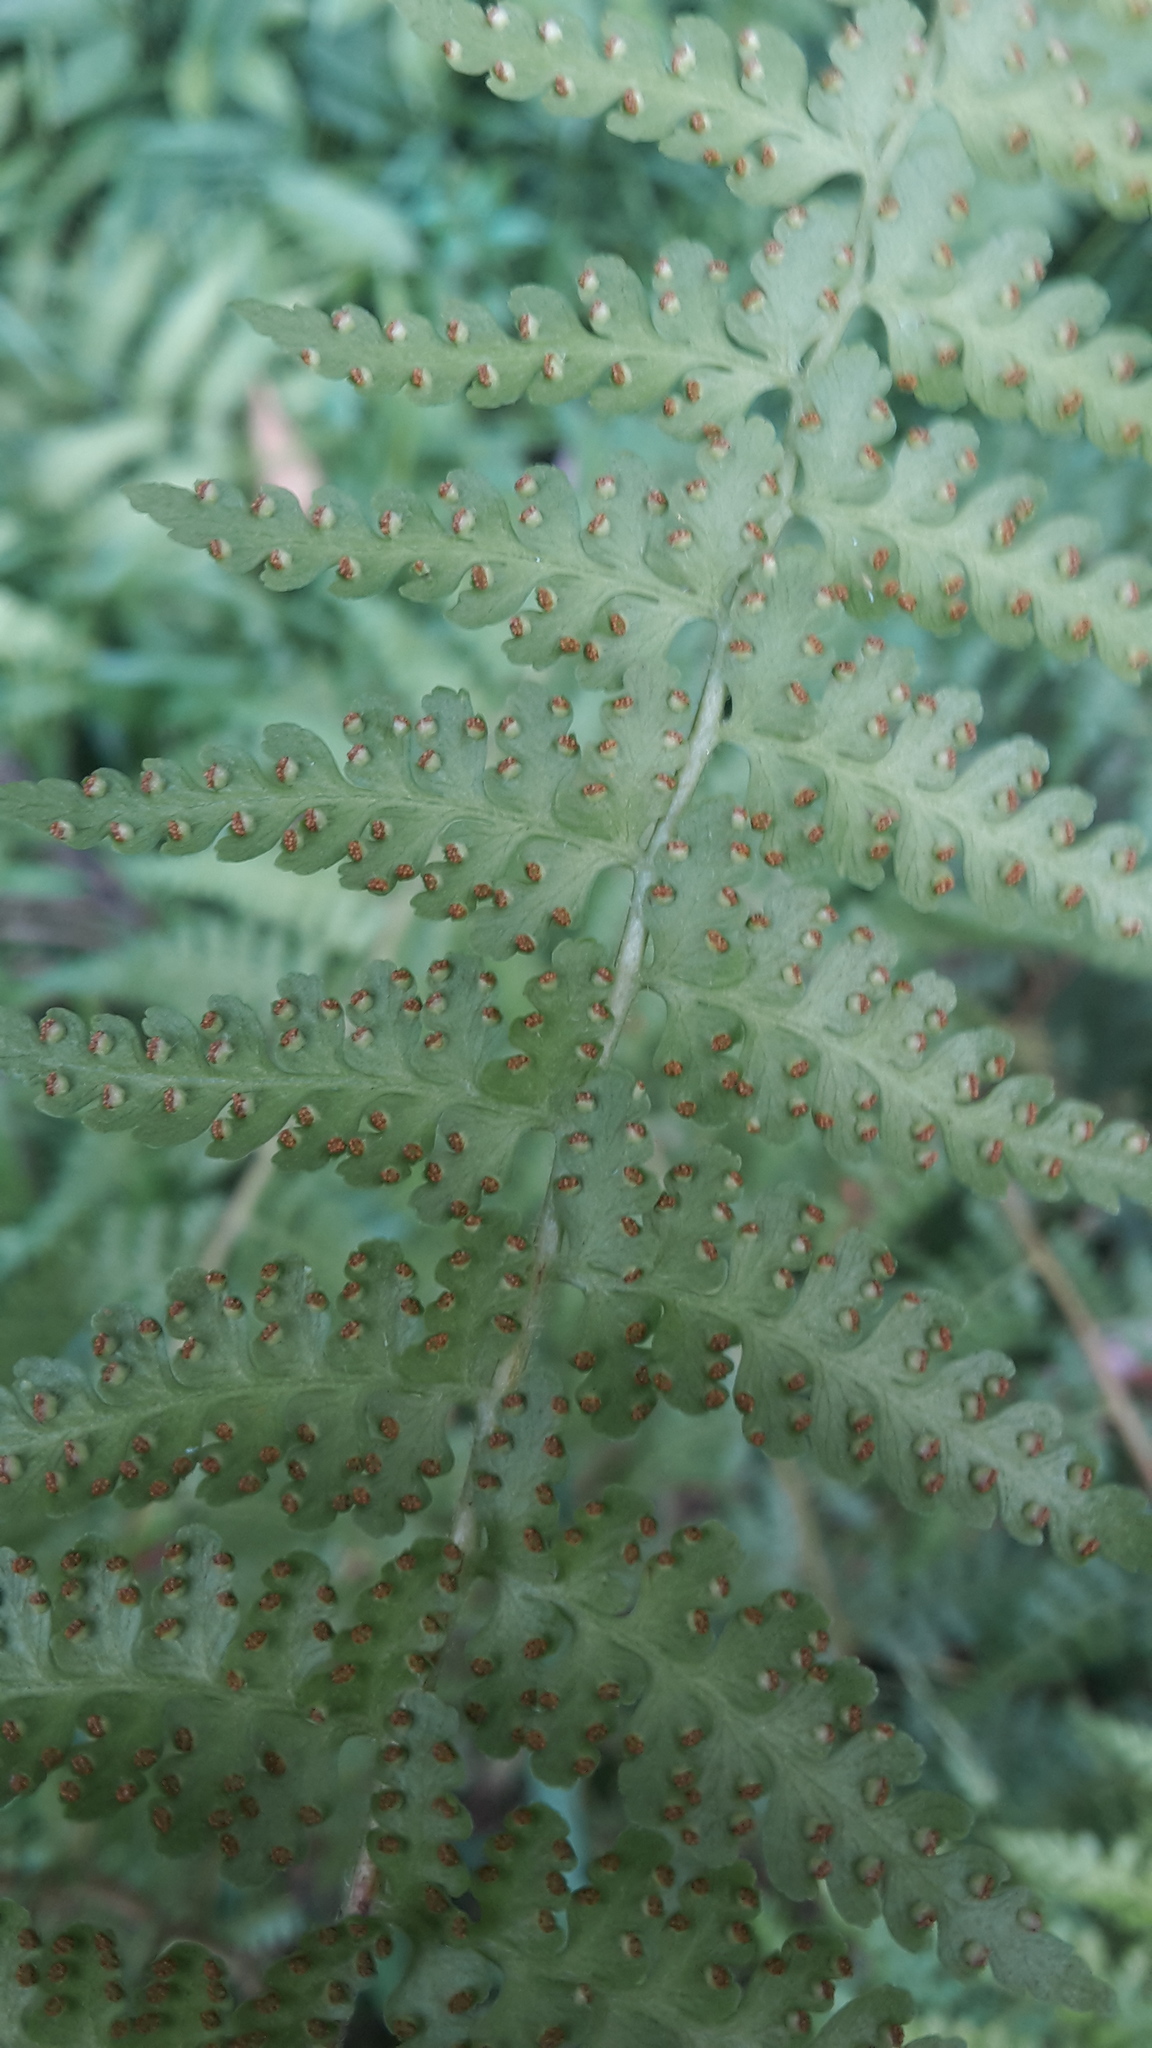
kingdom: Plantae
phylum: Tracheophyta
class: Polypodiopsida
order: Polypodiales
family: Dennstaedtiaceae
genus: Microlepia
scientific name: Microlepia nepalensis
